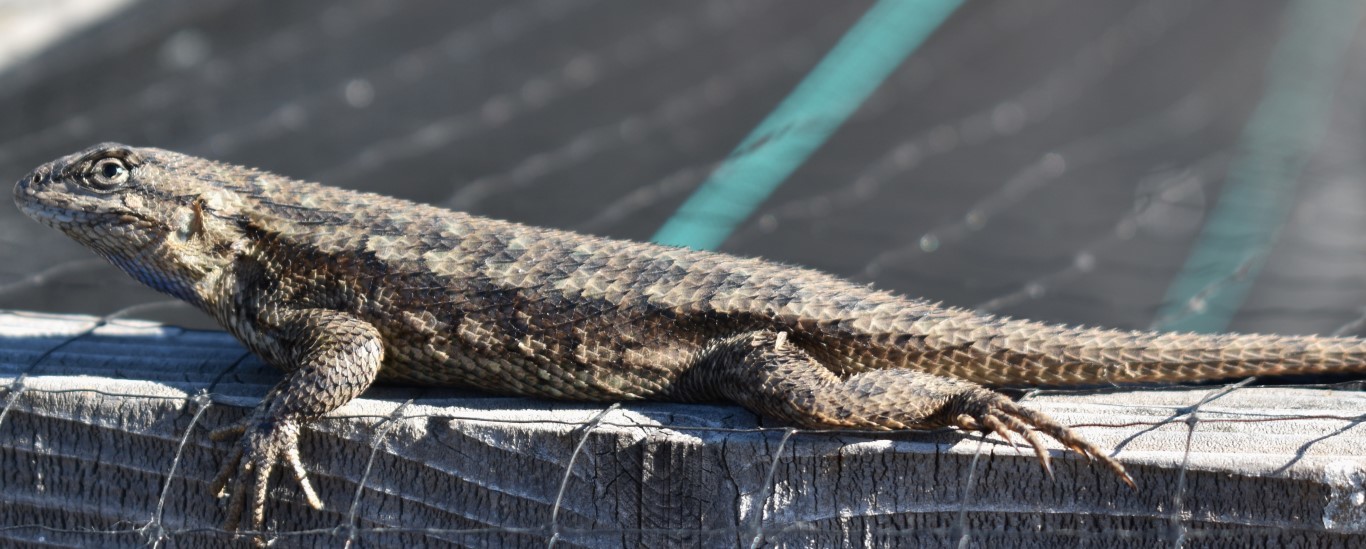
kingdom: Animalia
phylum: Chordata
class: Squamata
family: Phrynosomatidae
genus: Sceloporus
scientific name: Sceloporus occidentalis
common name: Western fence lizard
